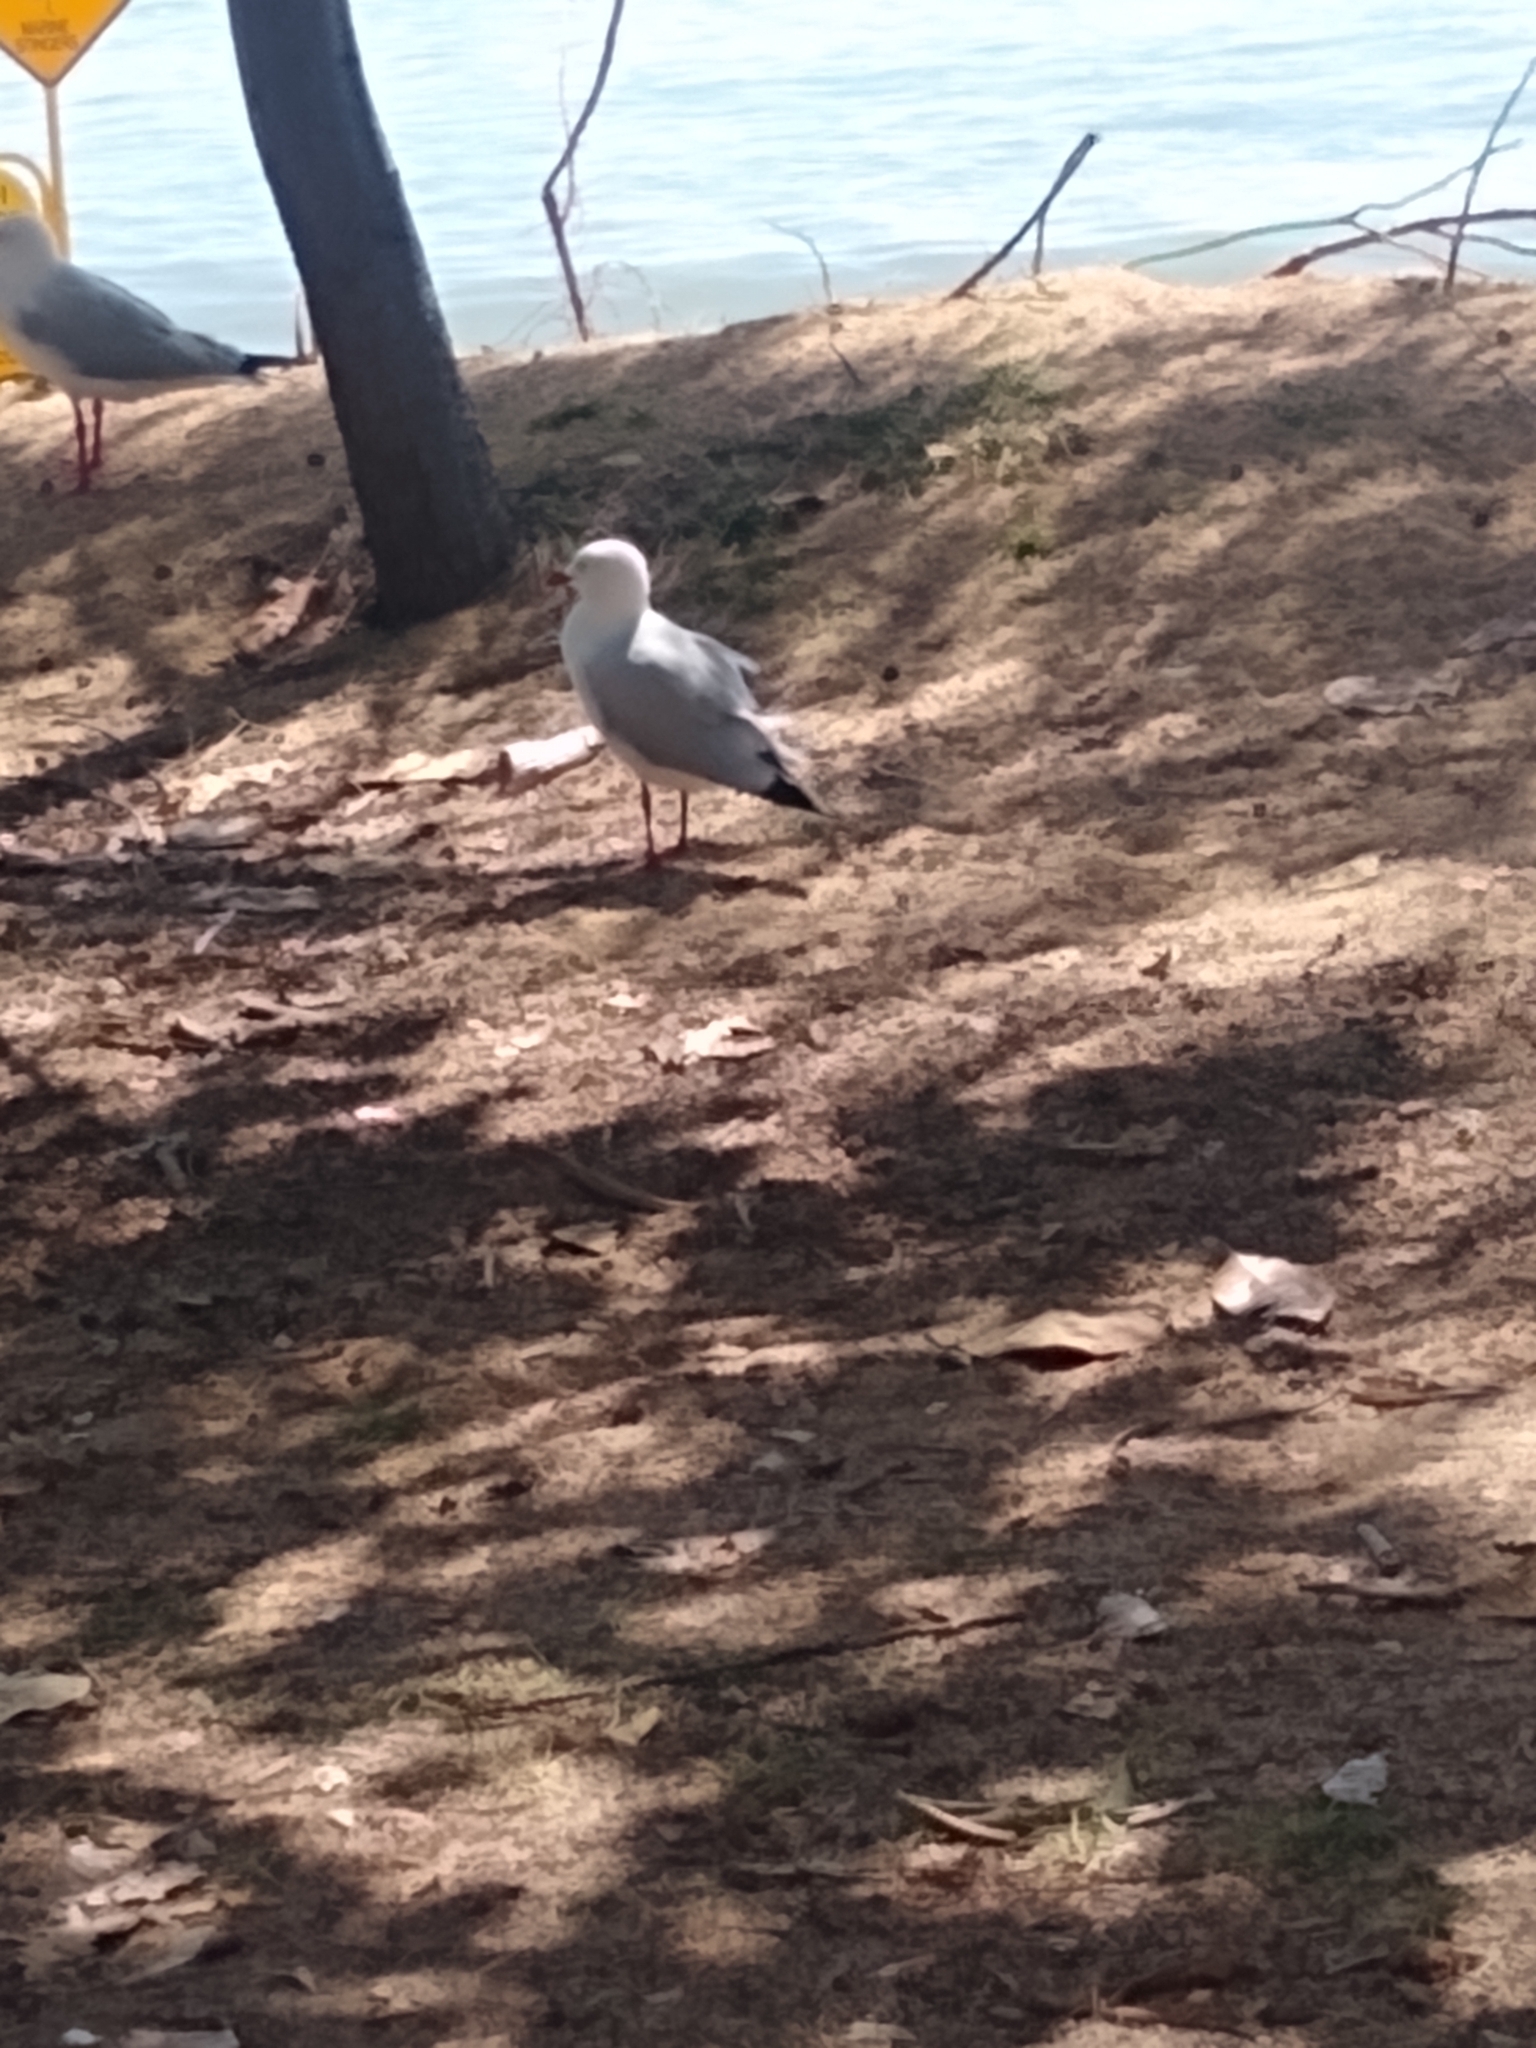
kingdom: Animalia
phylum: Chordata
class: Aves
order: Charadriiformes
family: Laridae
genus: Chroicocephalus
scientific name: Chroicocephalus novaehollandiae
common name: Silver gull
